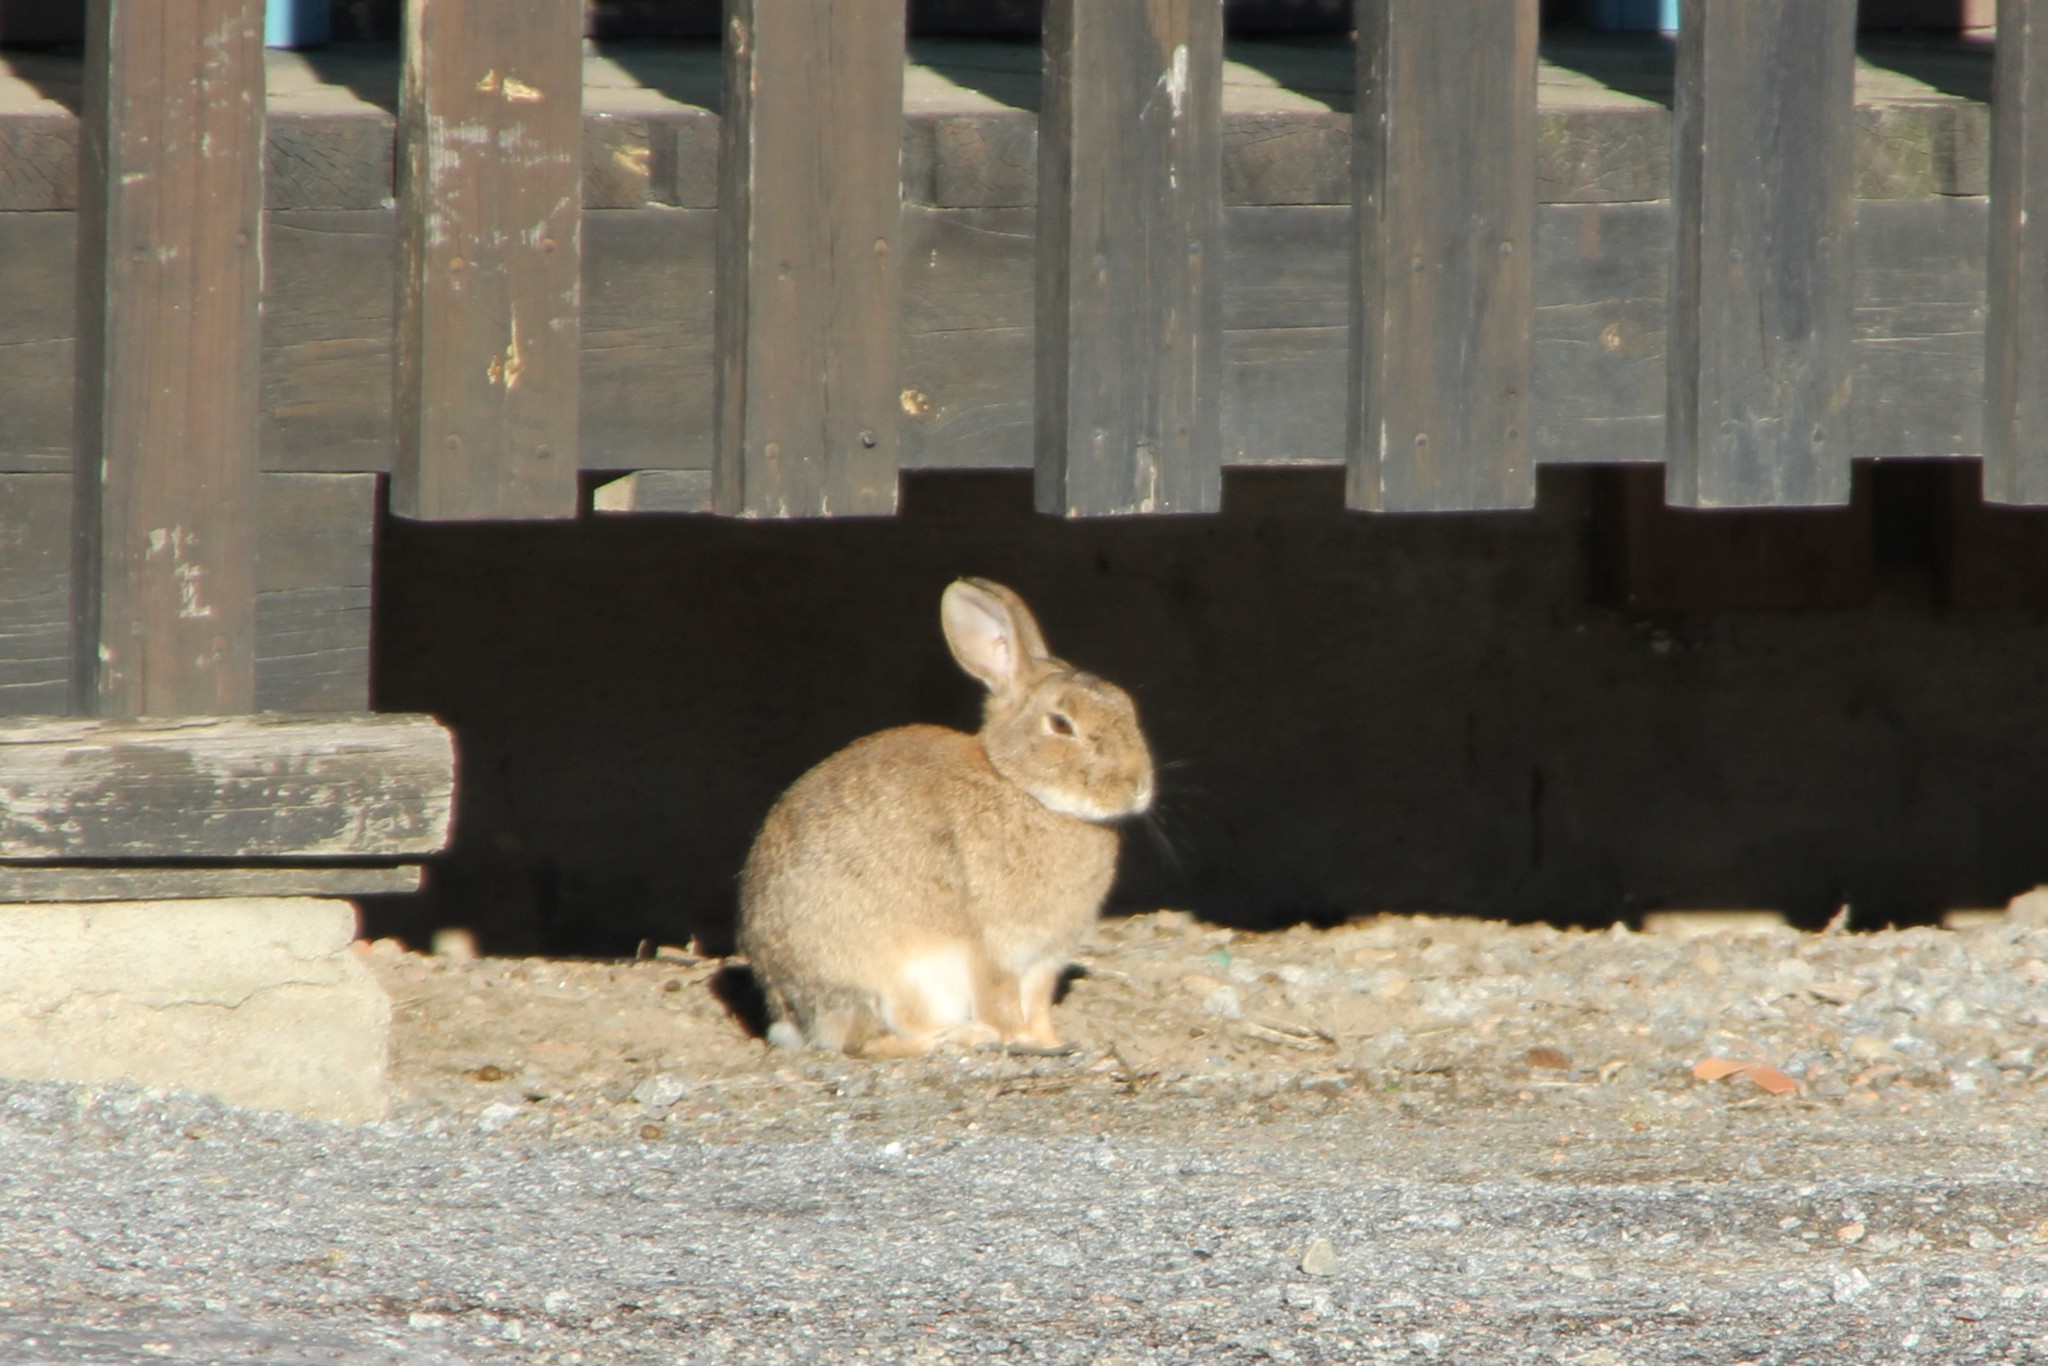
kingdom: Animalia
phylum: Chordata
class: Mammalia
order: Lagomorpha
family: Leporidae
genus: Oryctolagus
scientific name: Oryctolagus cuniculus
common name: European rabbit
